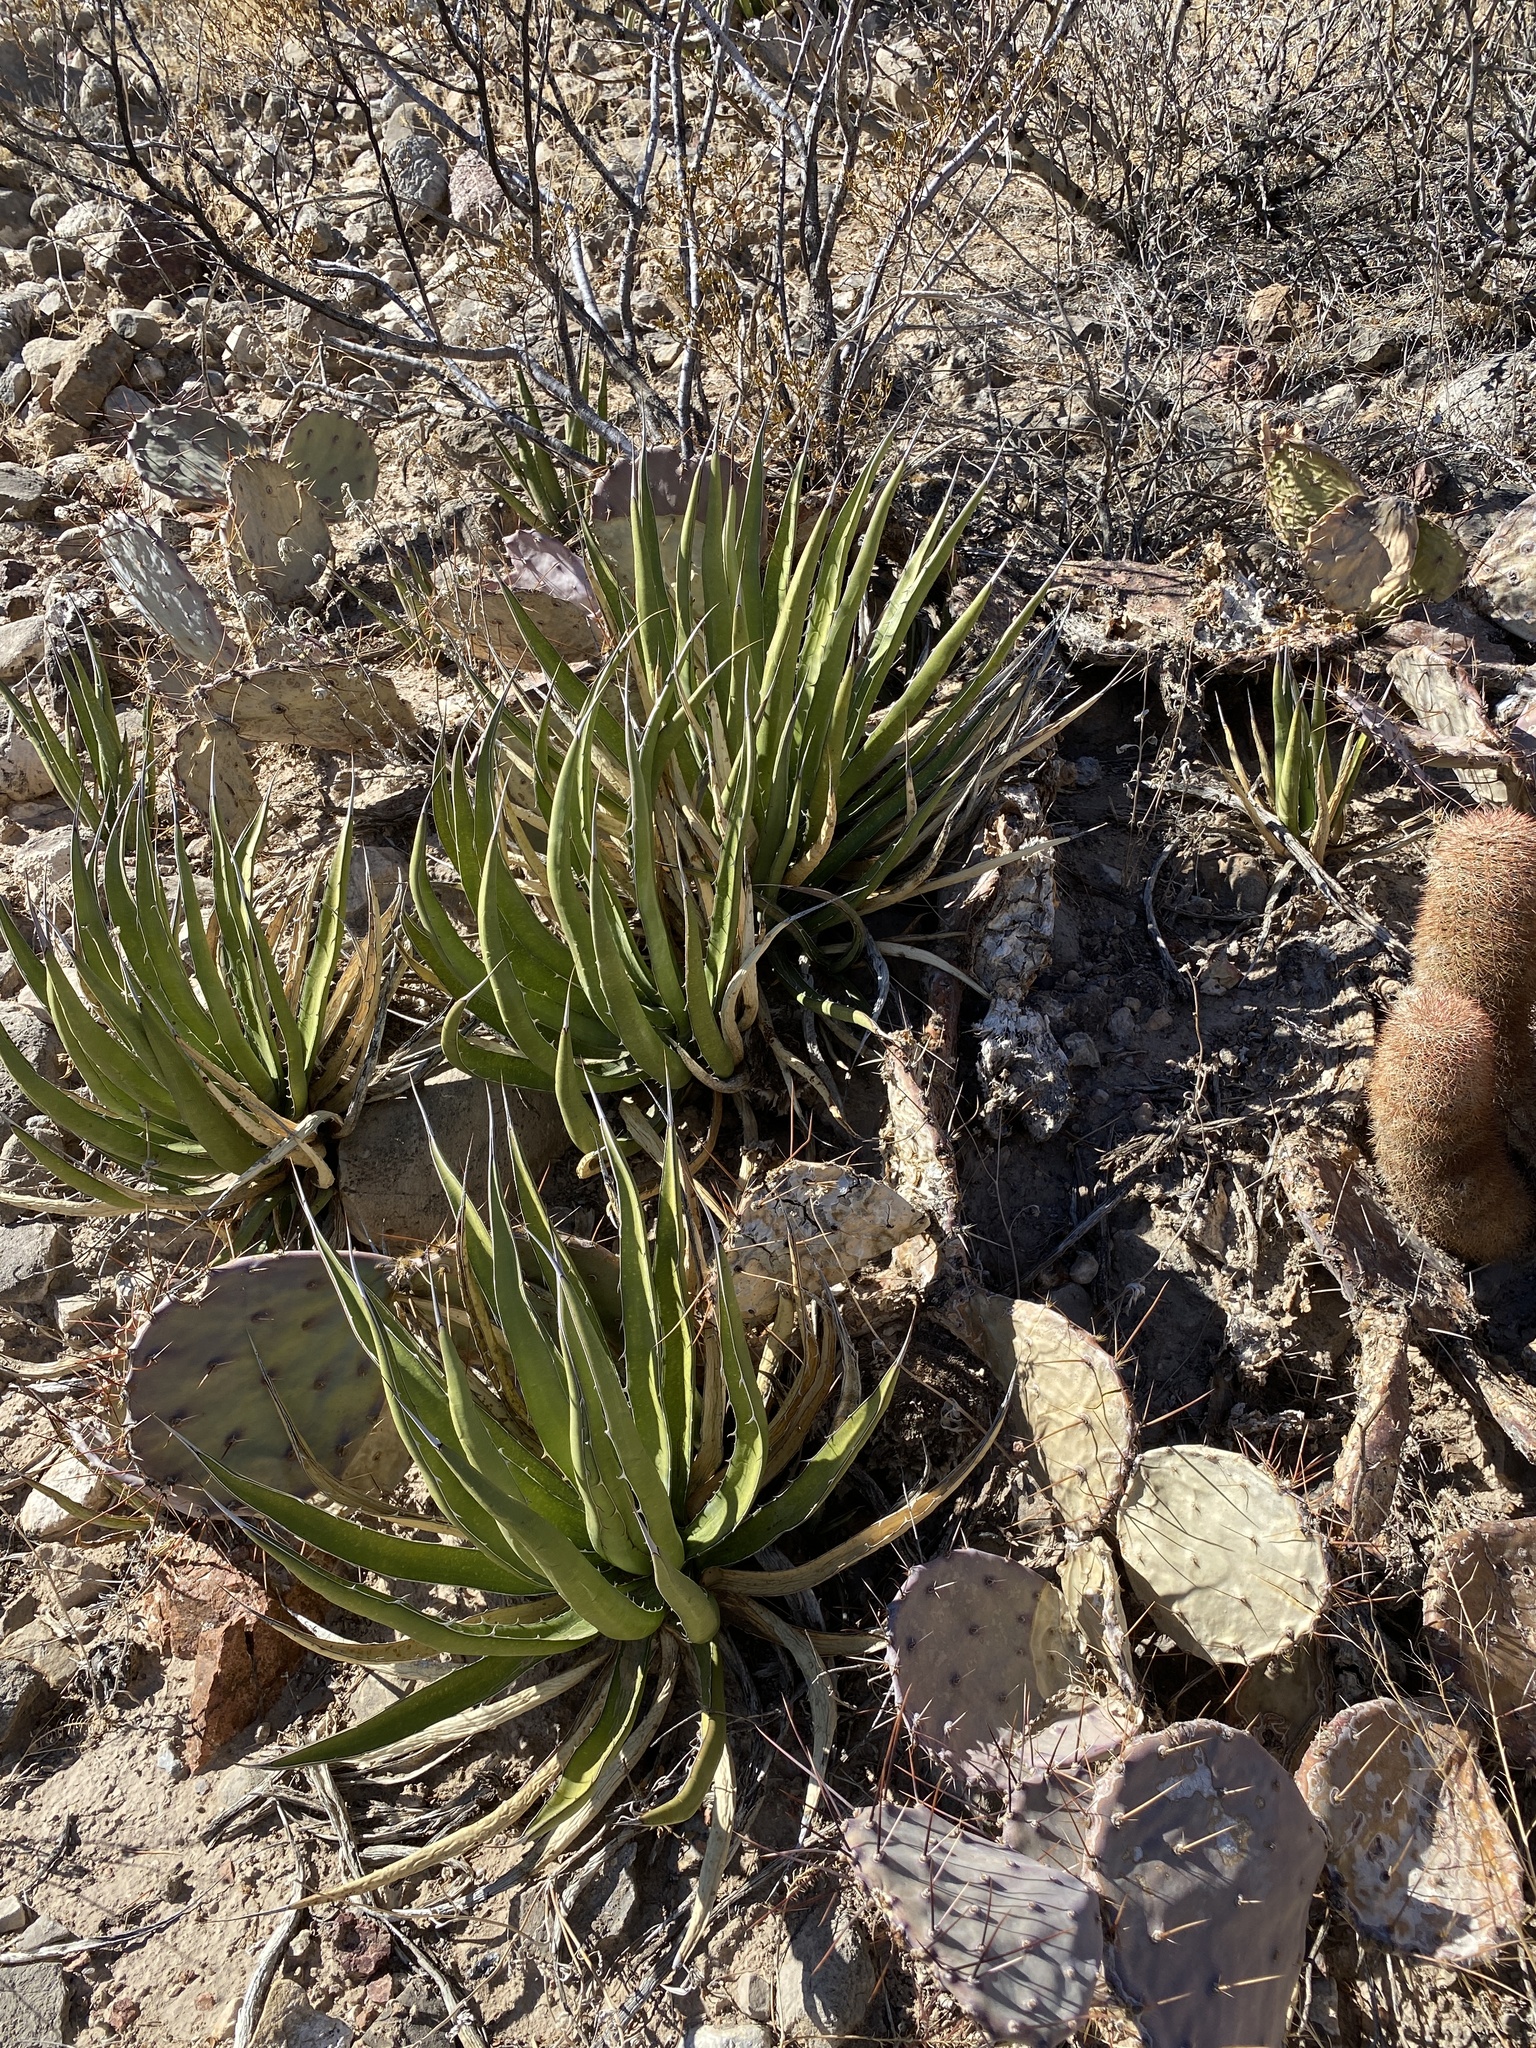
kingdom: Plantae
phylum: Tracheophyta
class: Liliopsida
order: Asparagales
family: Asparagaceae
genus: Agave
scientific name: Agave lechuguilla
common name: Lecheguilla agave
